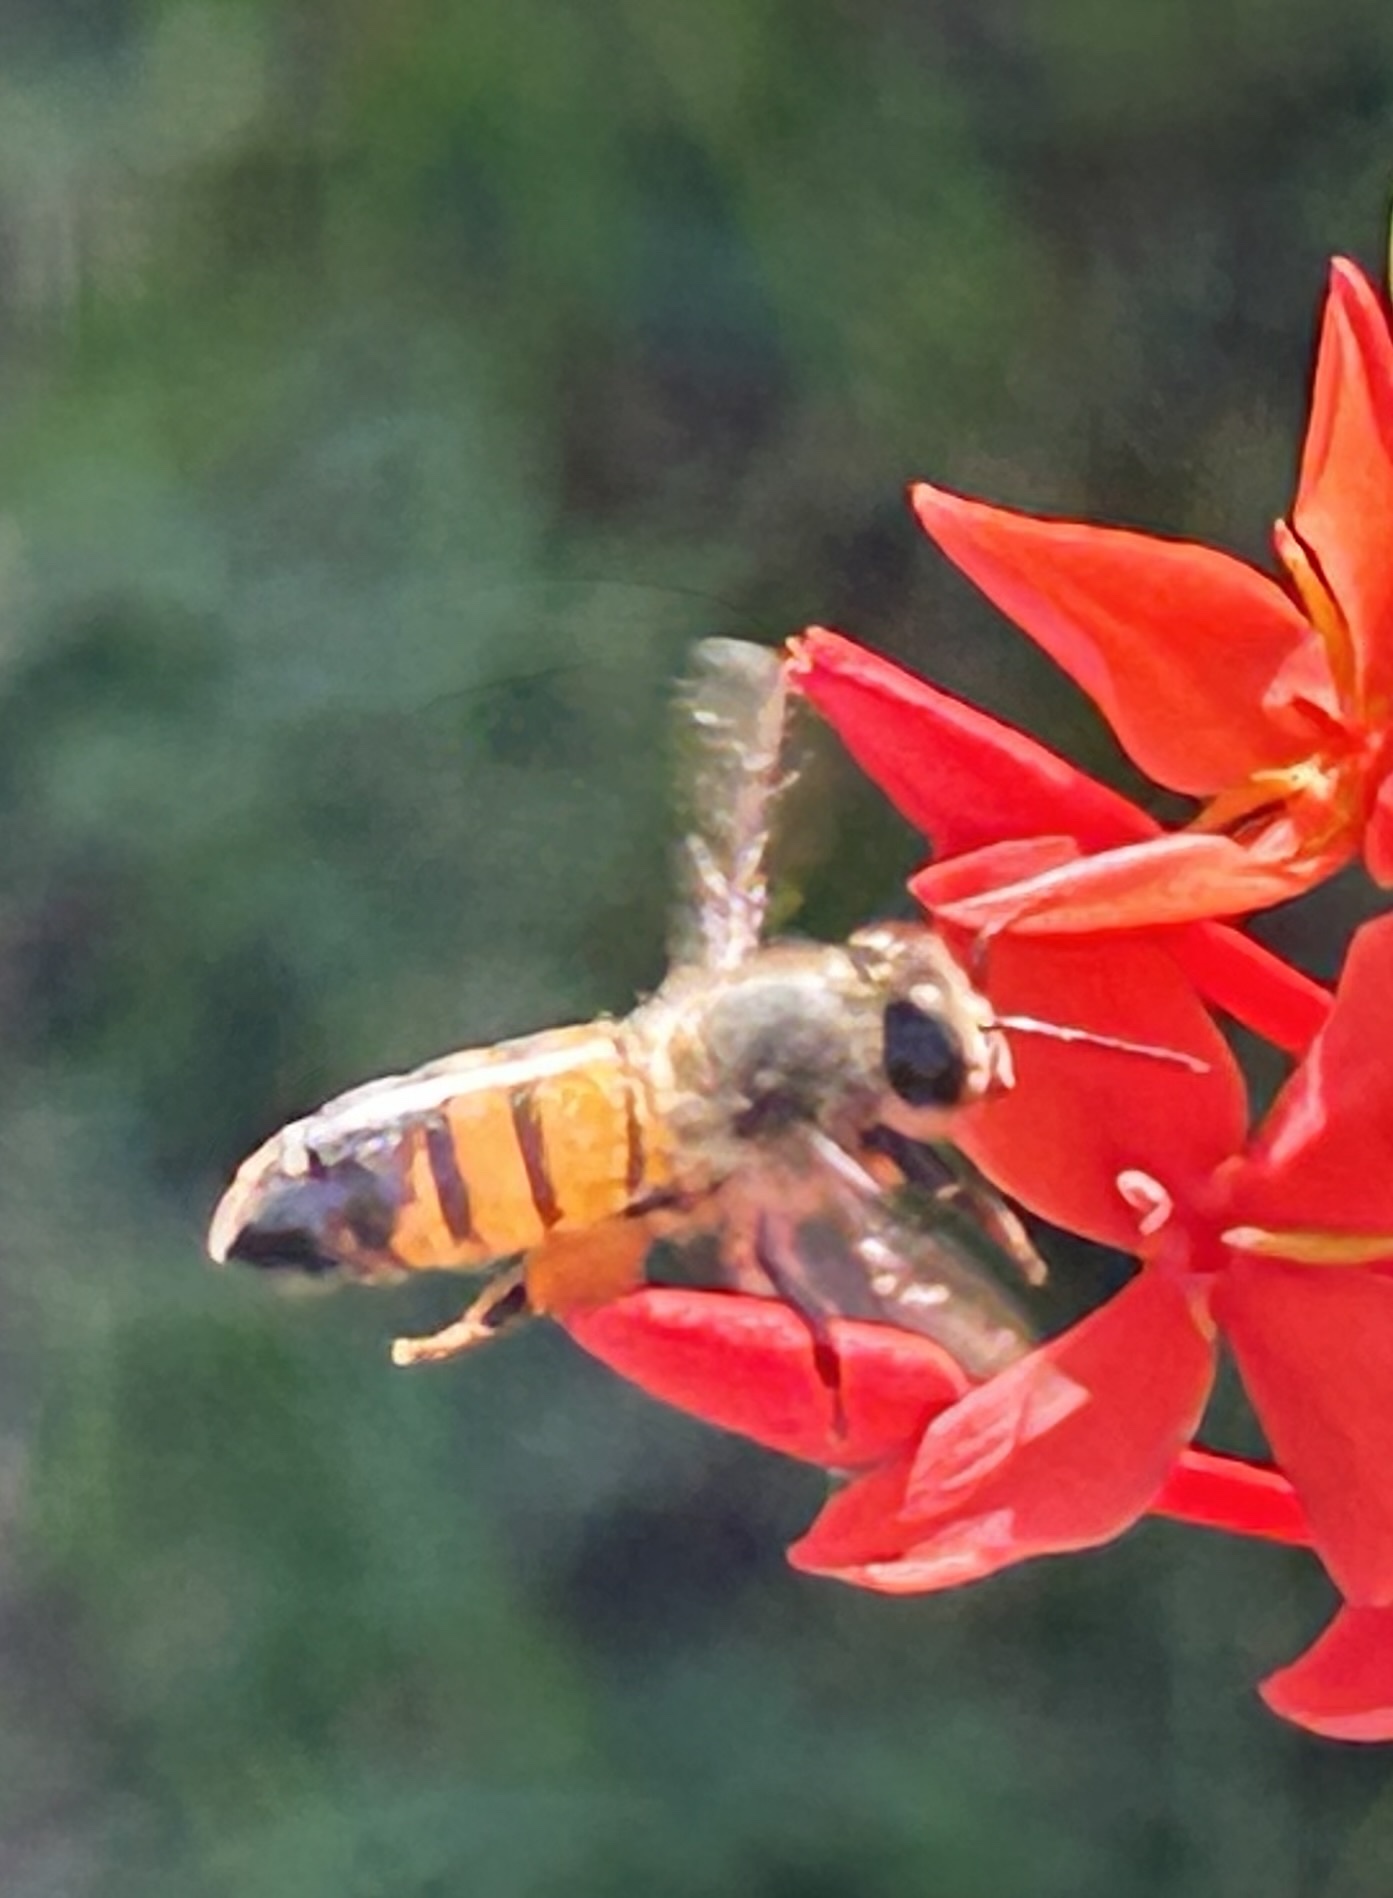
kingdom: Animalia
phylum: Arthropoda
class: Insecta
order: Hymenoptera
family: Apidae
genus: Apis
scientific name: Apis mellifera
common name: Honey bee
